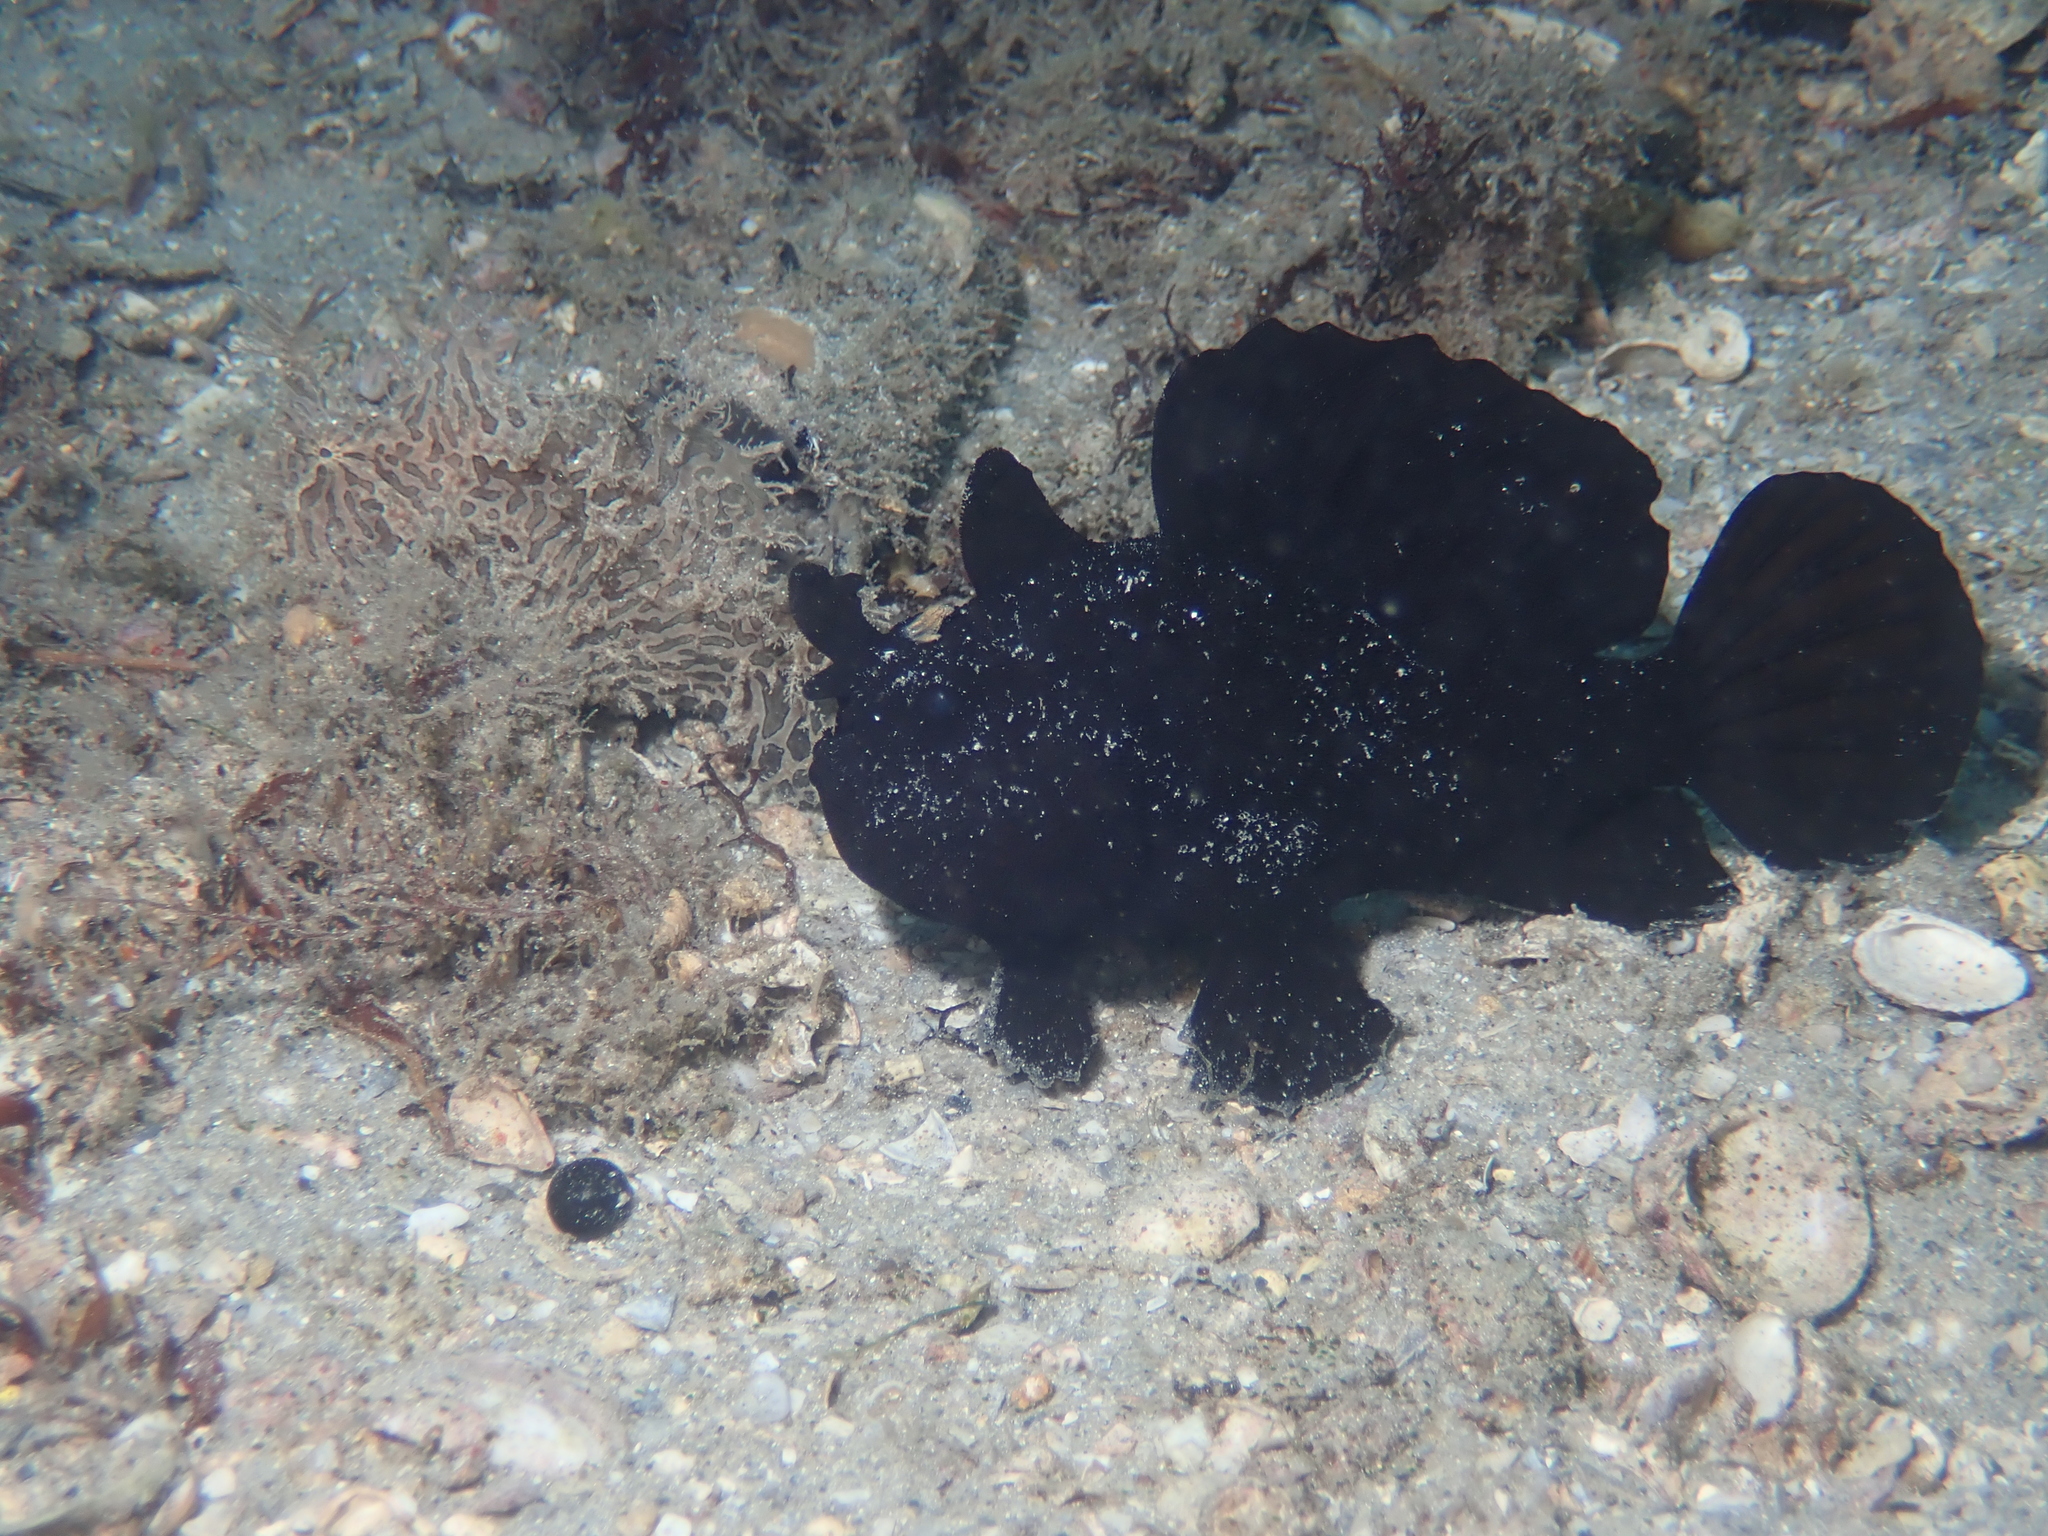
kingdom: Animalia
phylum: Chordata
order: Lophiiformes
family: Antennariidae
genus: Antennarius
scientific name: Antennarius striatus
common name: Striated frogfish
